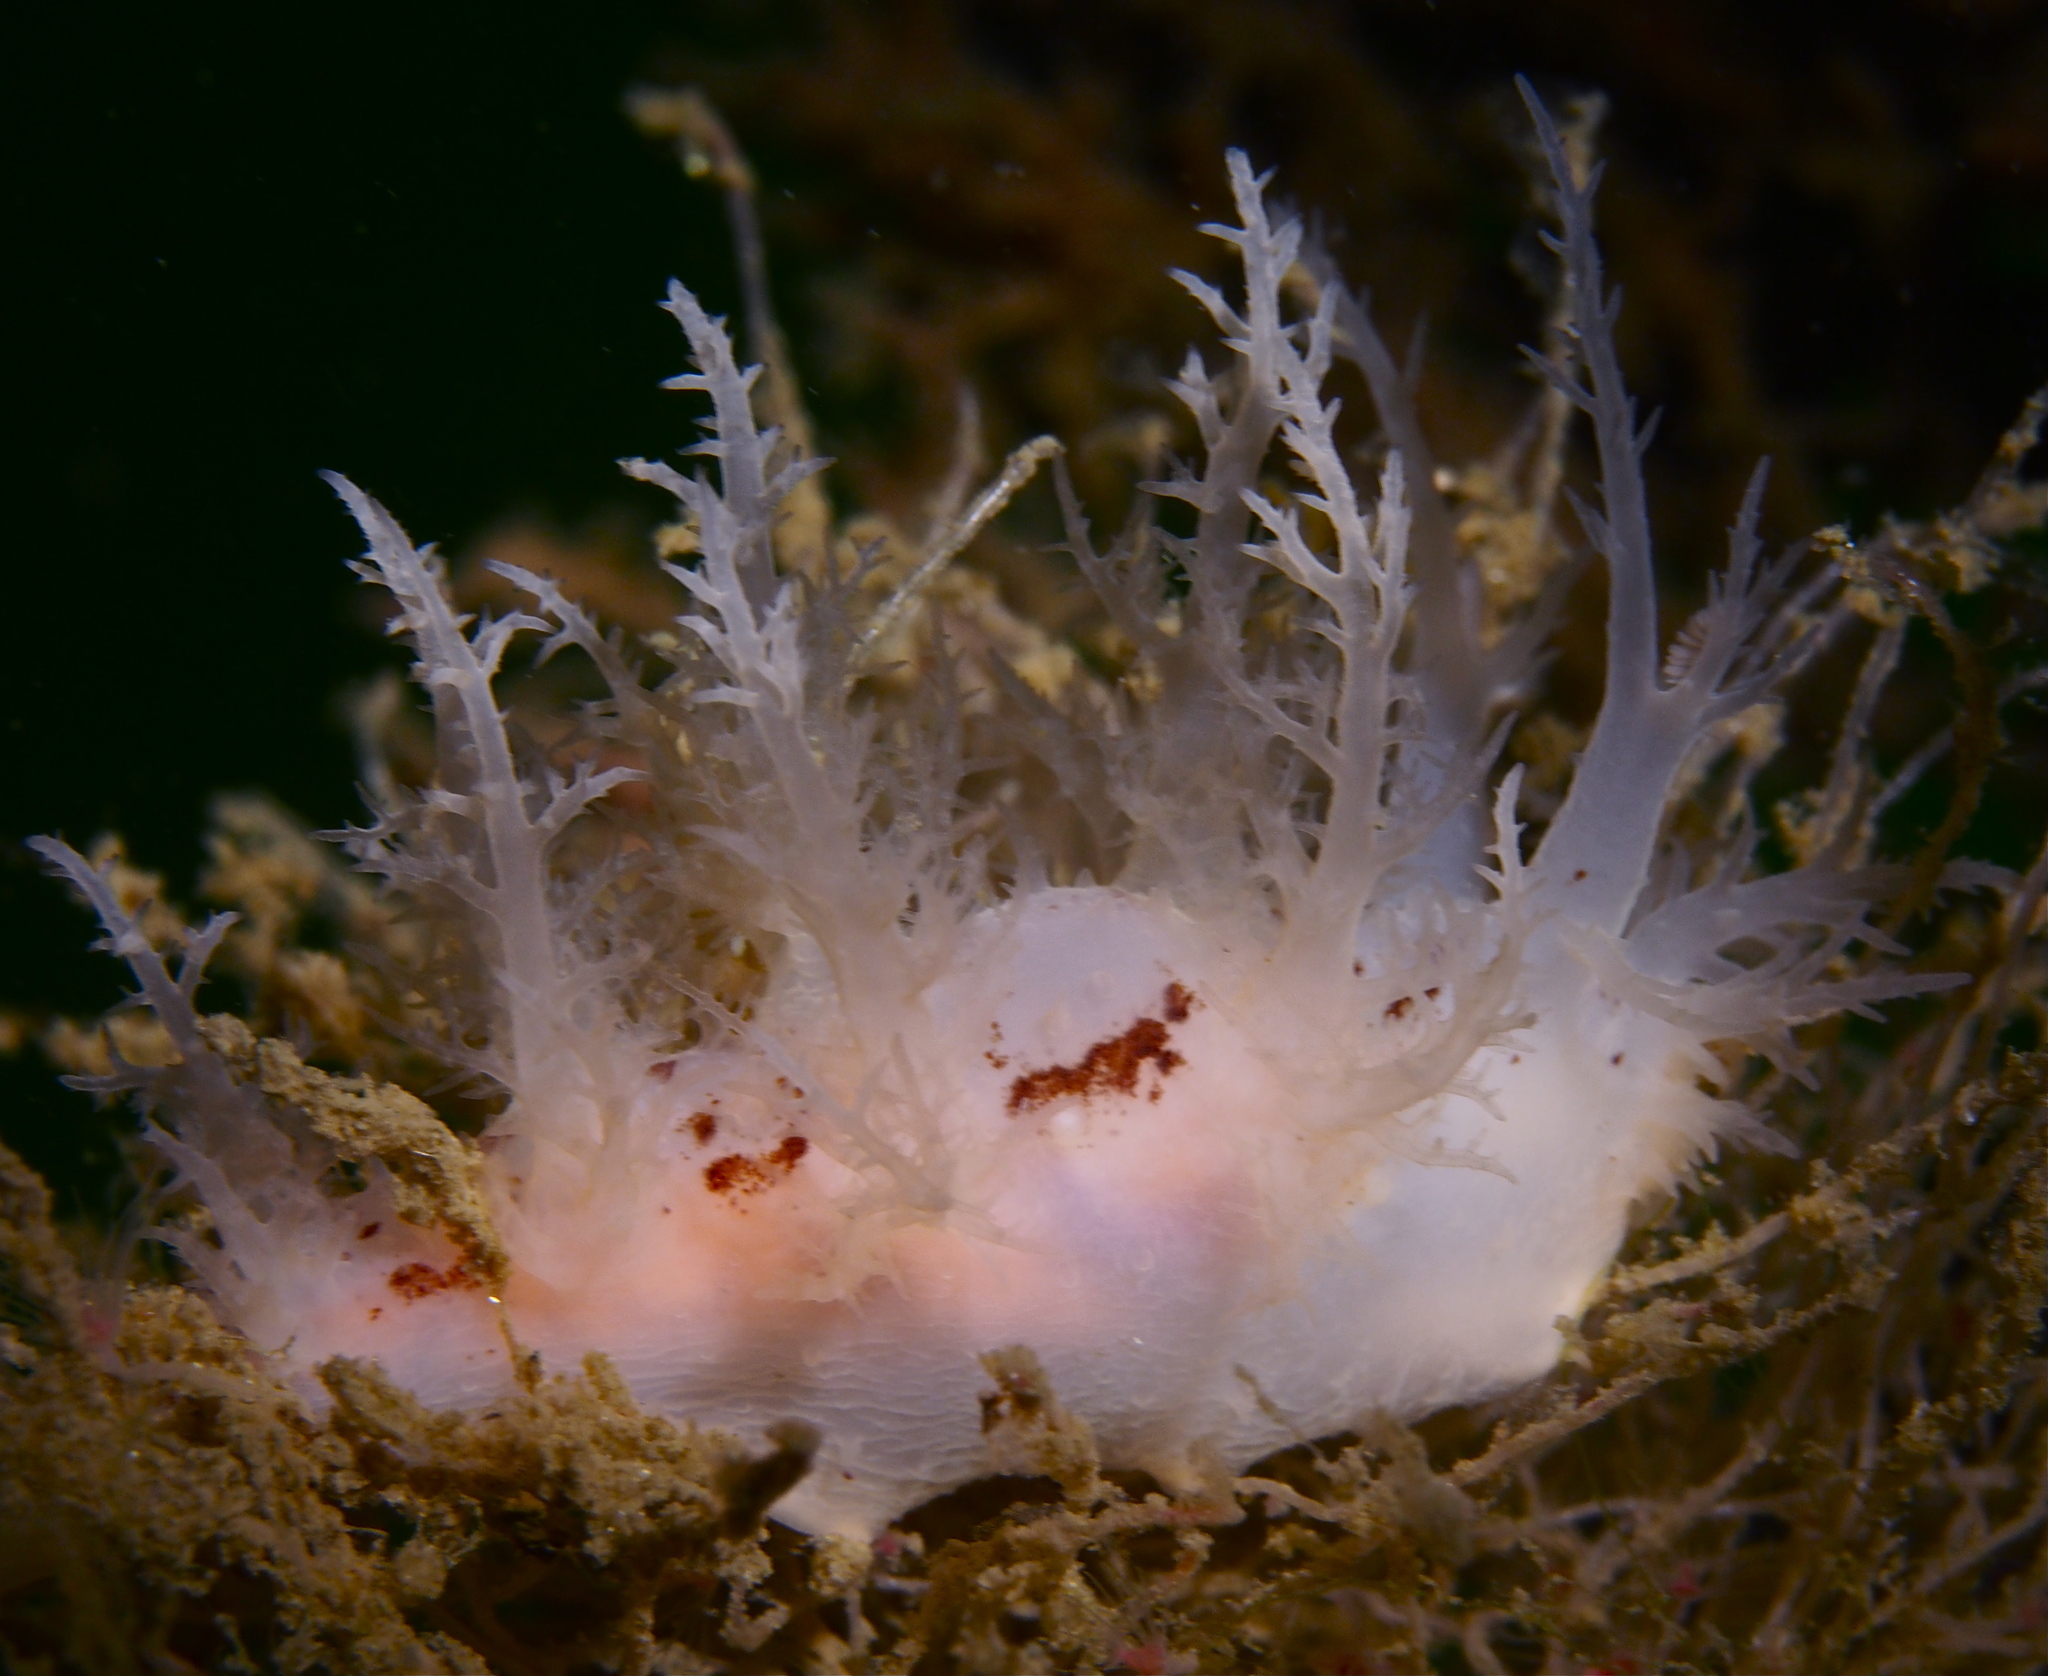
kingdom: Animalia
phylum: Mollusca
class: Gastropoda
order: Nudibranchia
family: Dendronotidae
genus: Dendronotus
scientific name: Dendronotus europaeus
